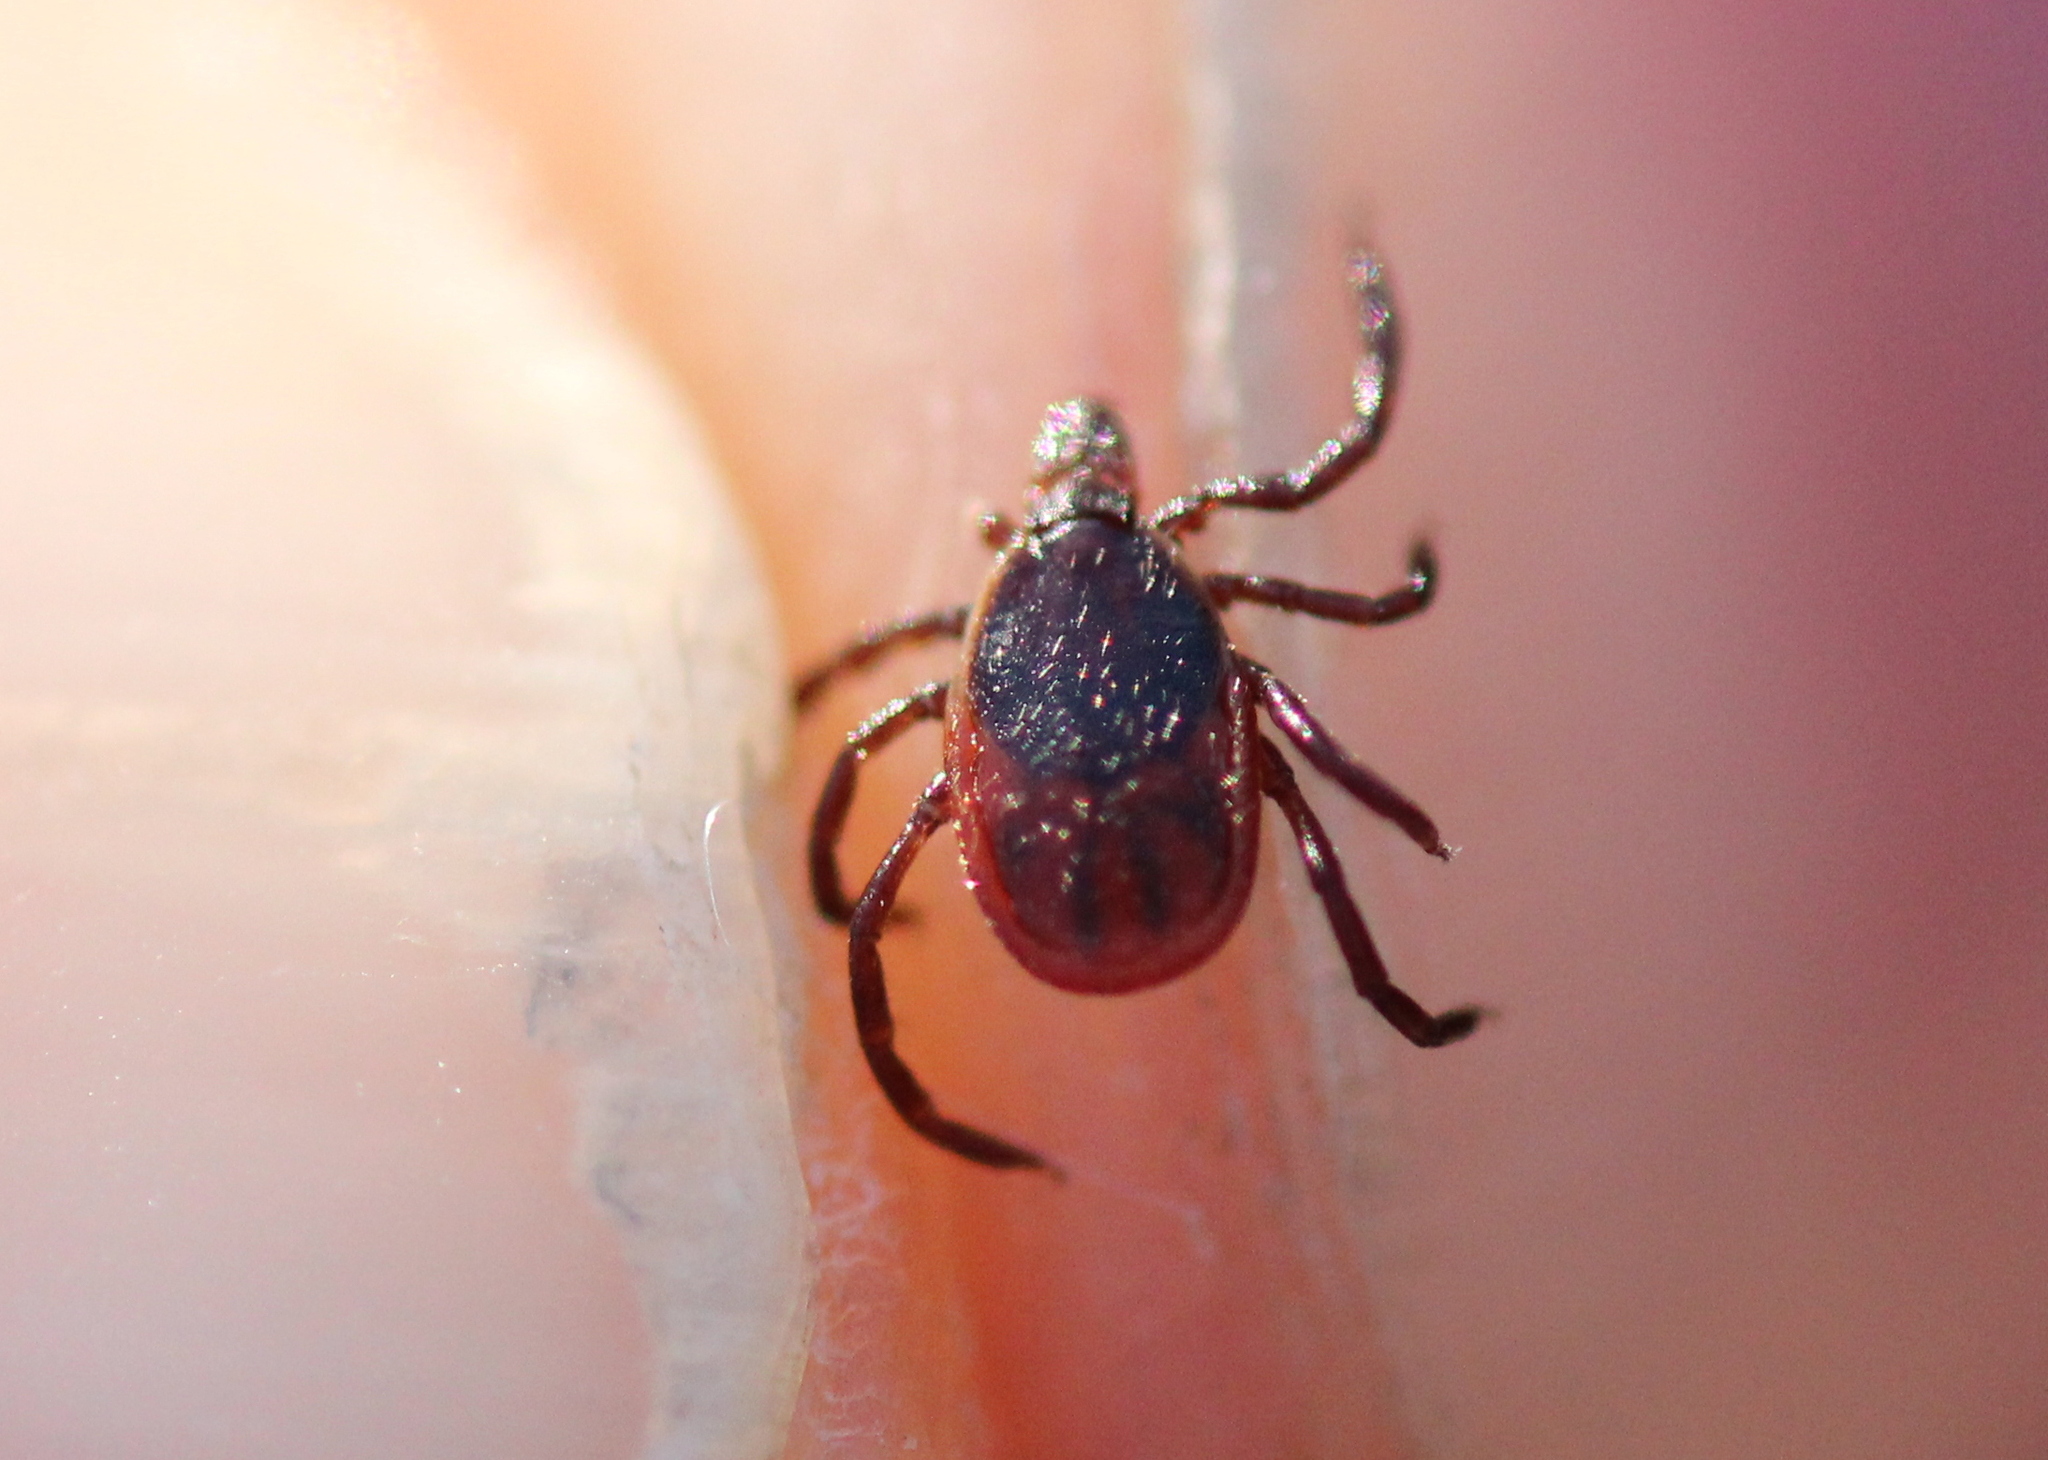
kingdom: Animalia
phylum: Arthropoda
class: Arachnida
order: Ixodida
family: Ixodidae
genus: Ixodes
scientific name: Ixodes scapularis
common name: Black legged tick
